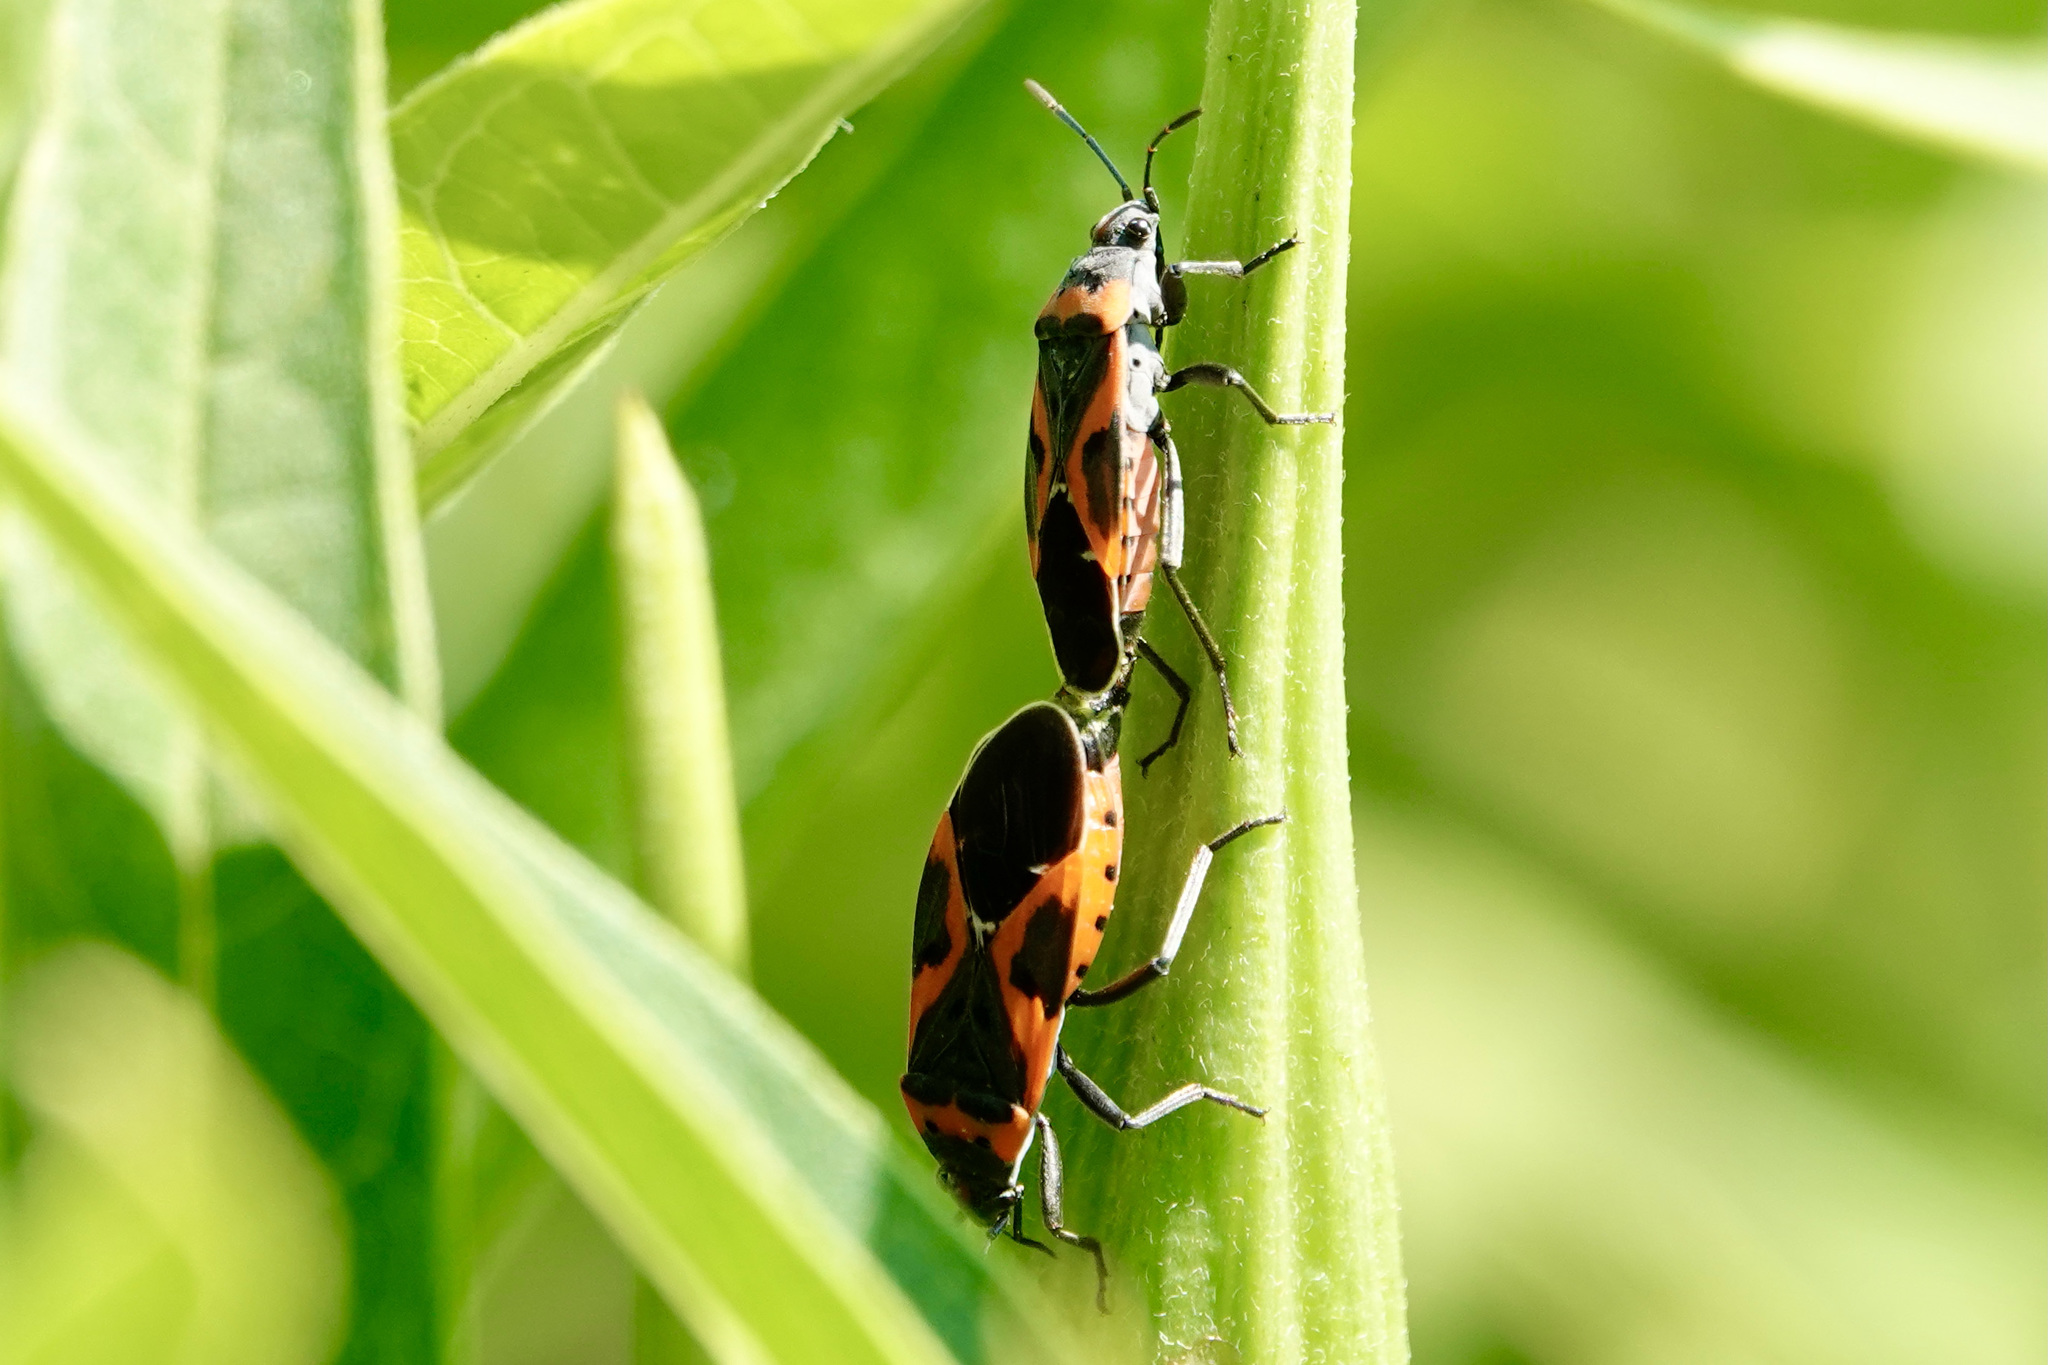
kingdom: Animalia
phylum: Arthropoda
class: Insecta
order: Hemiptera
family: Lygaeidae
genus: Lygaeus
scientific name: Lygaeus kalmii
